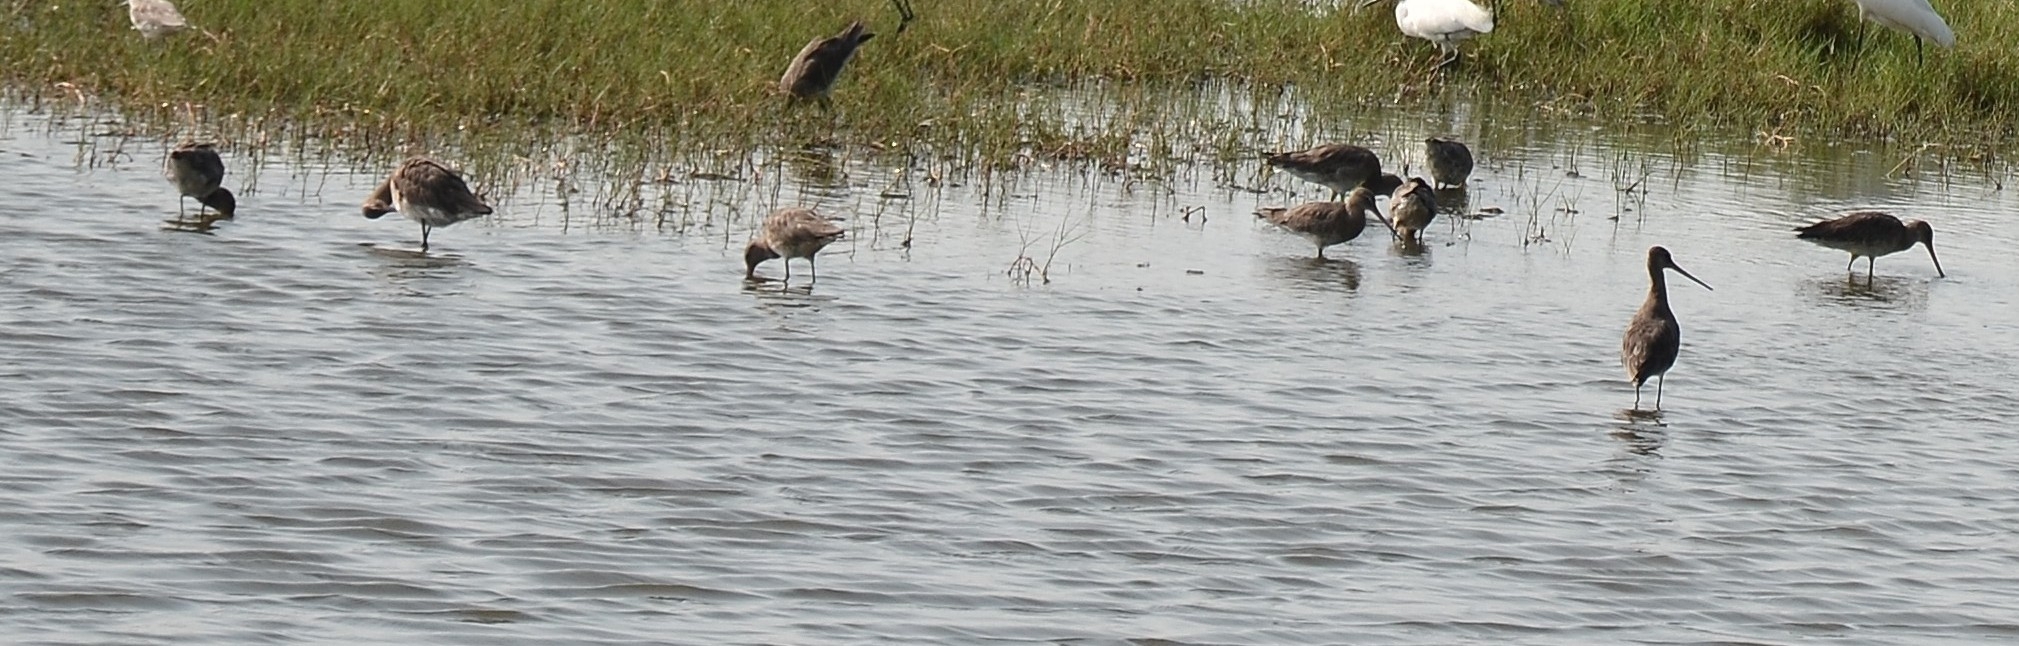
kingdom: Animalia
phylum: Chordata
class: Aves
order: Charadriiformes
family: Scolopacidae
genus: Limosa
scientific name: Limosa limosa
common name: Black-tailed godwit
